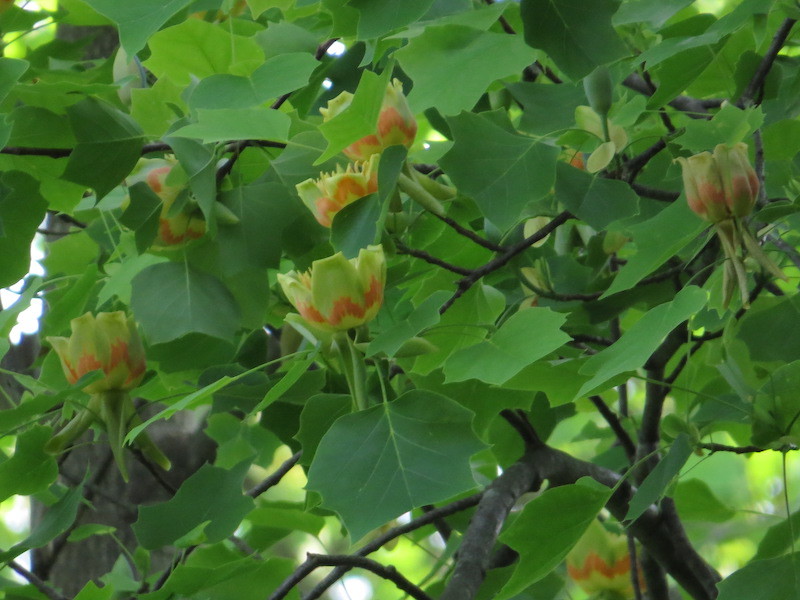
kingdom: Plantae
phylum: Tracheophyta
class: Magnoliopsida
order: Magnoliales
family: Magnoliaceae
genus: Liriodendron
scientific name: Liriodendron tulipifera
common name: Tulip tree
